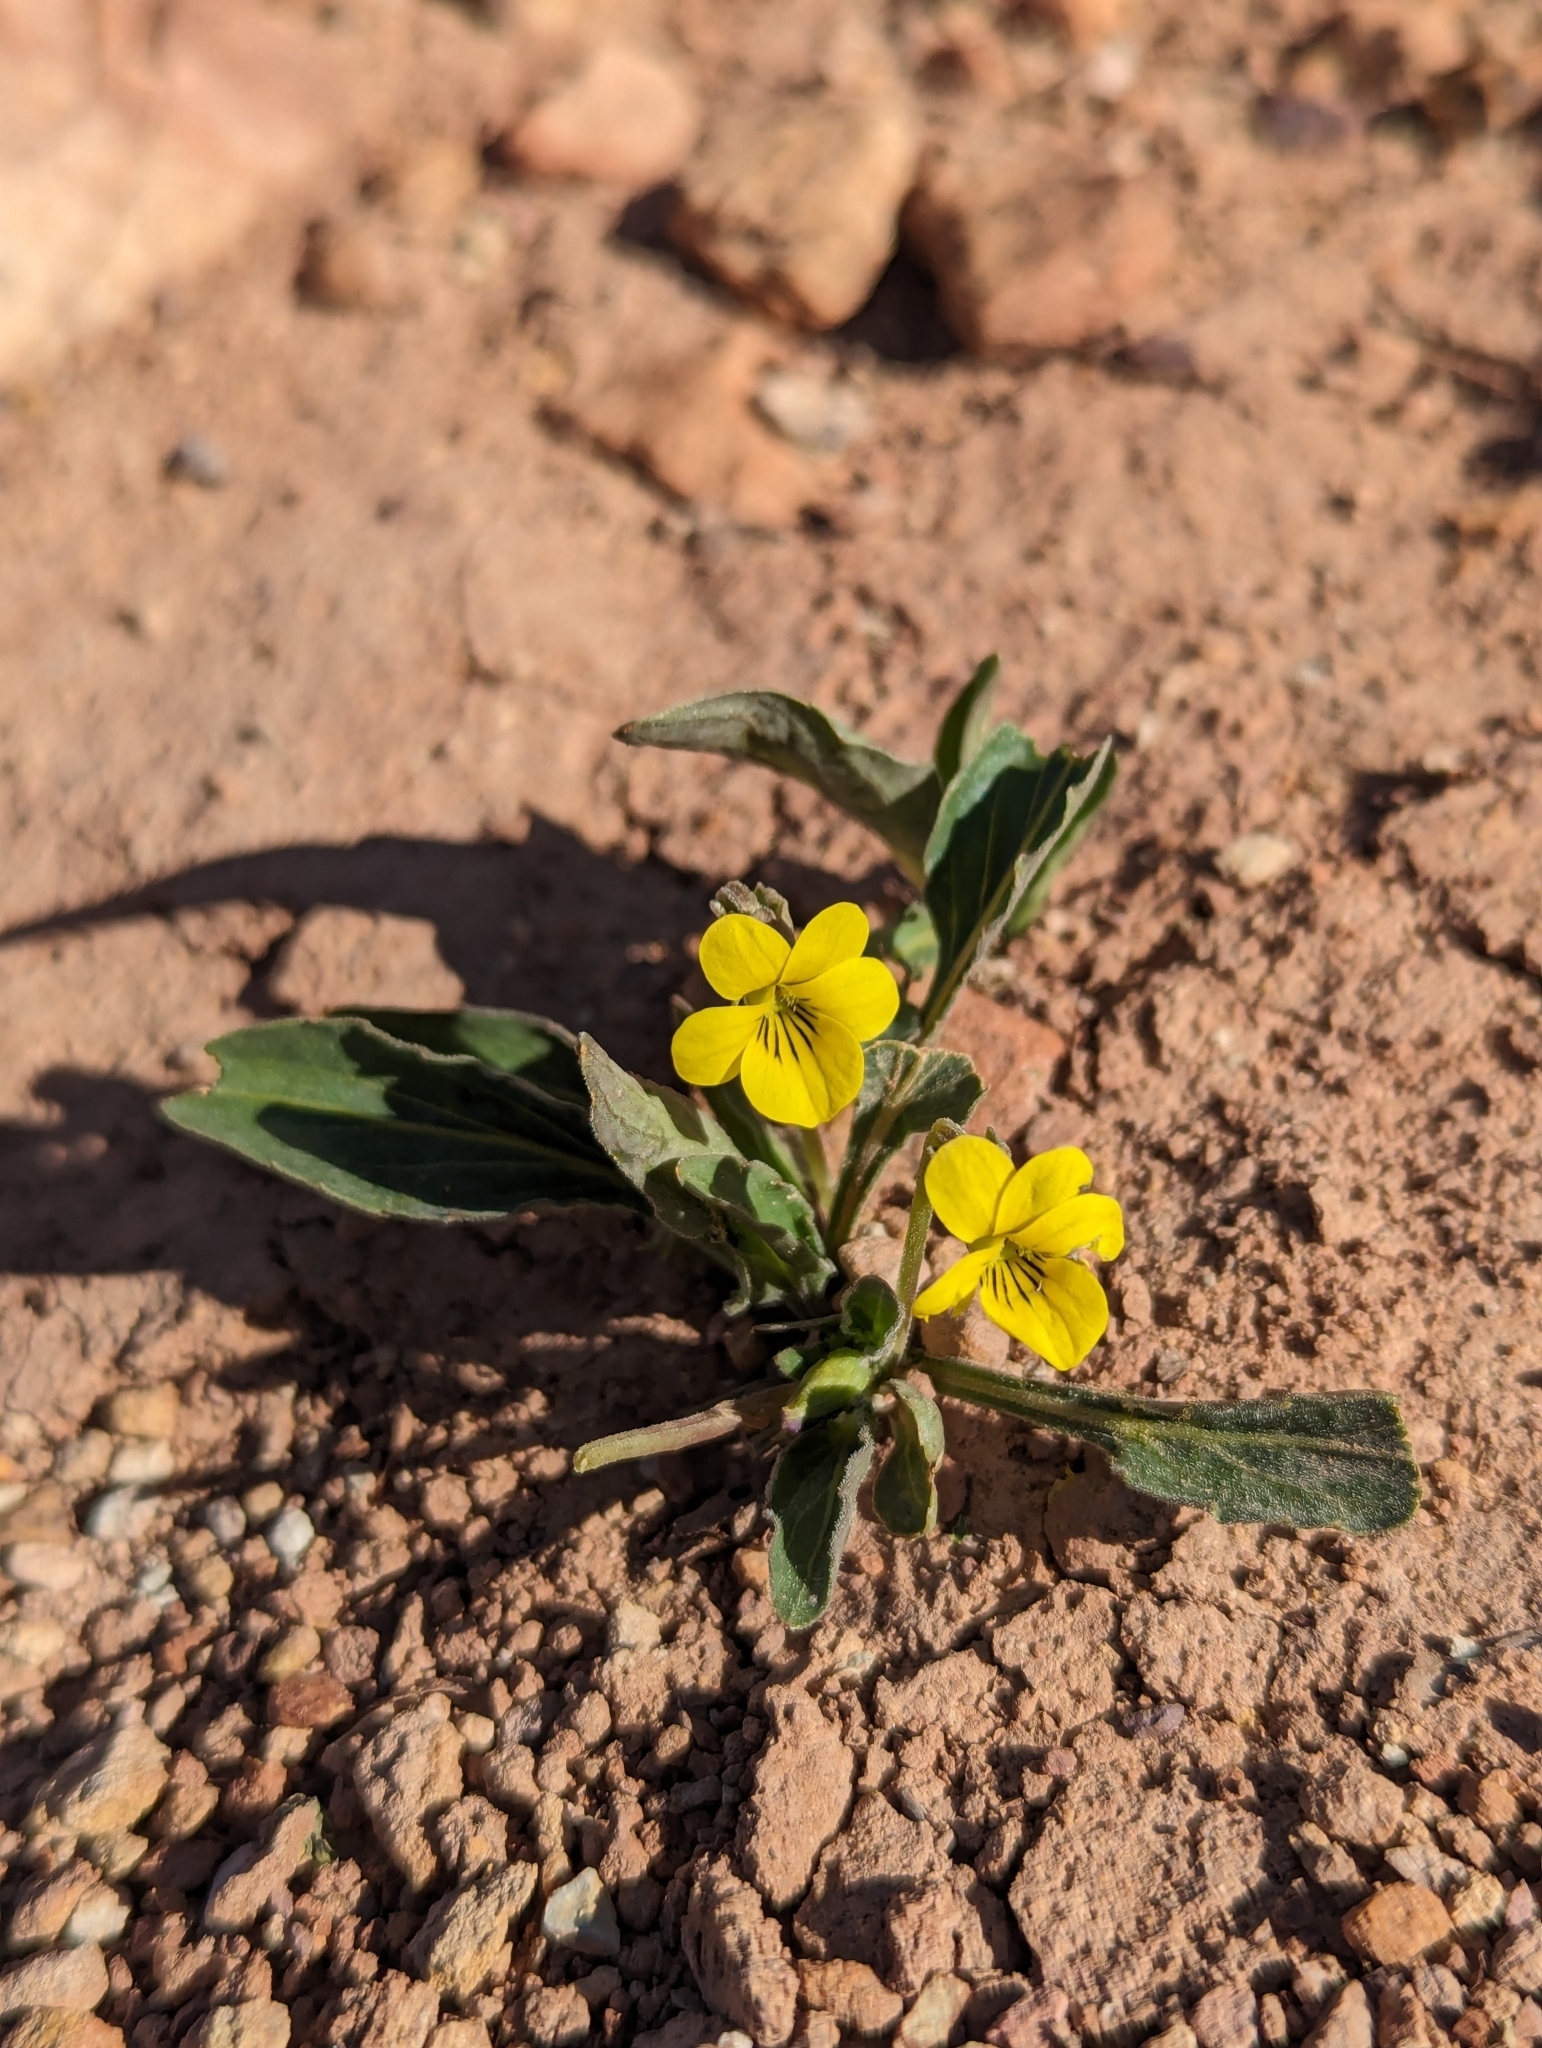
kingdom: Plantae
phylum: Tracheophyta
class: Magnoliopsida
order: Malpighiales
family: Violaceae
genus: Viola
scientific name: Viola nuttallii
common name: Yellow prairie violet
